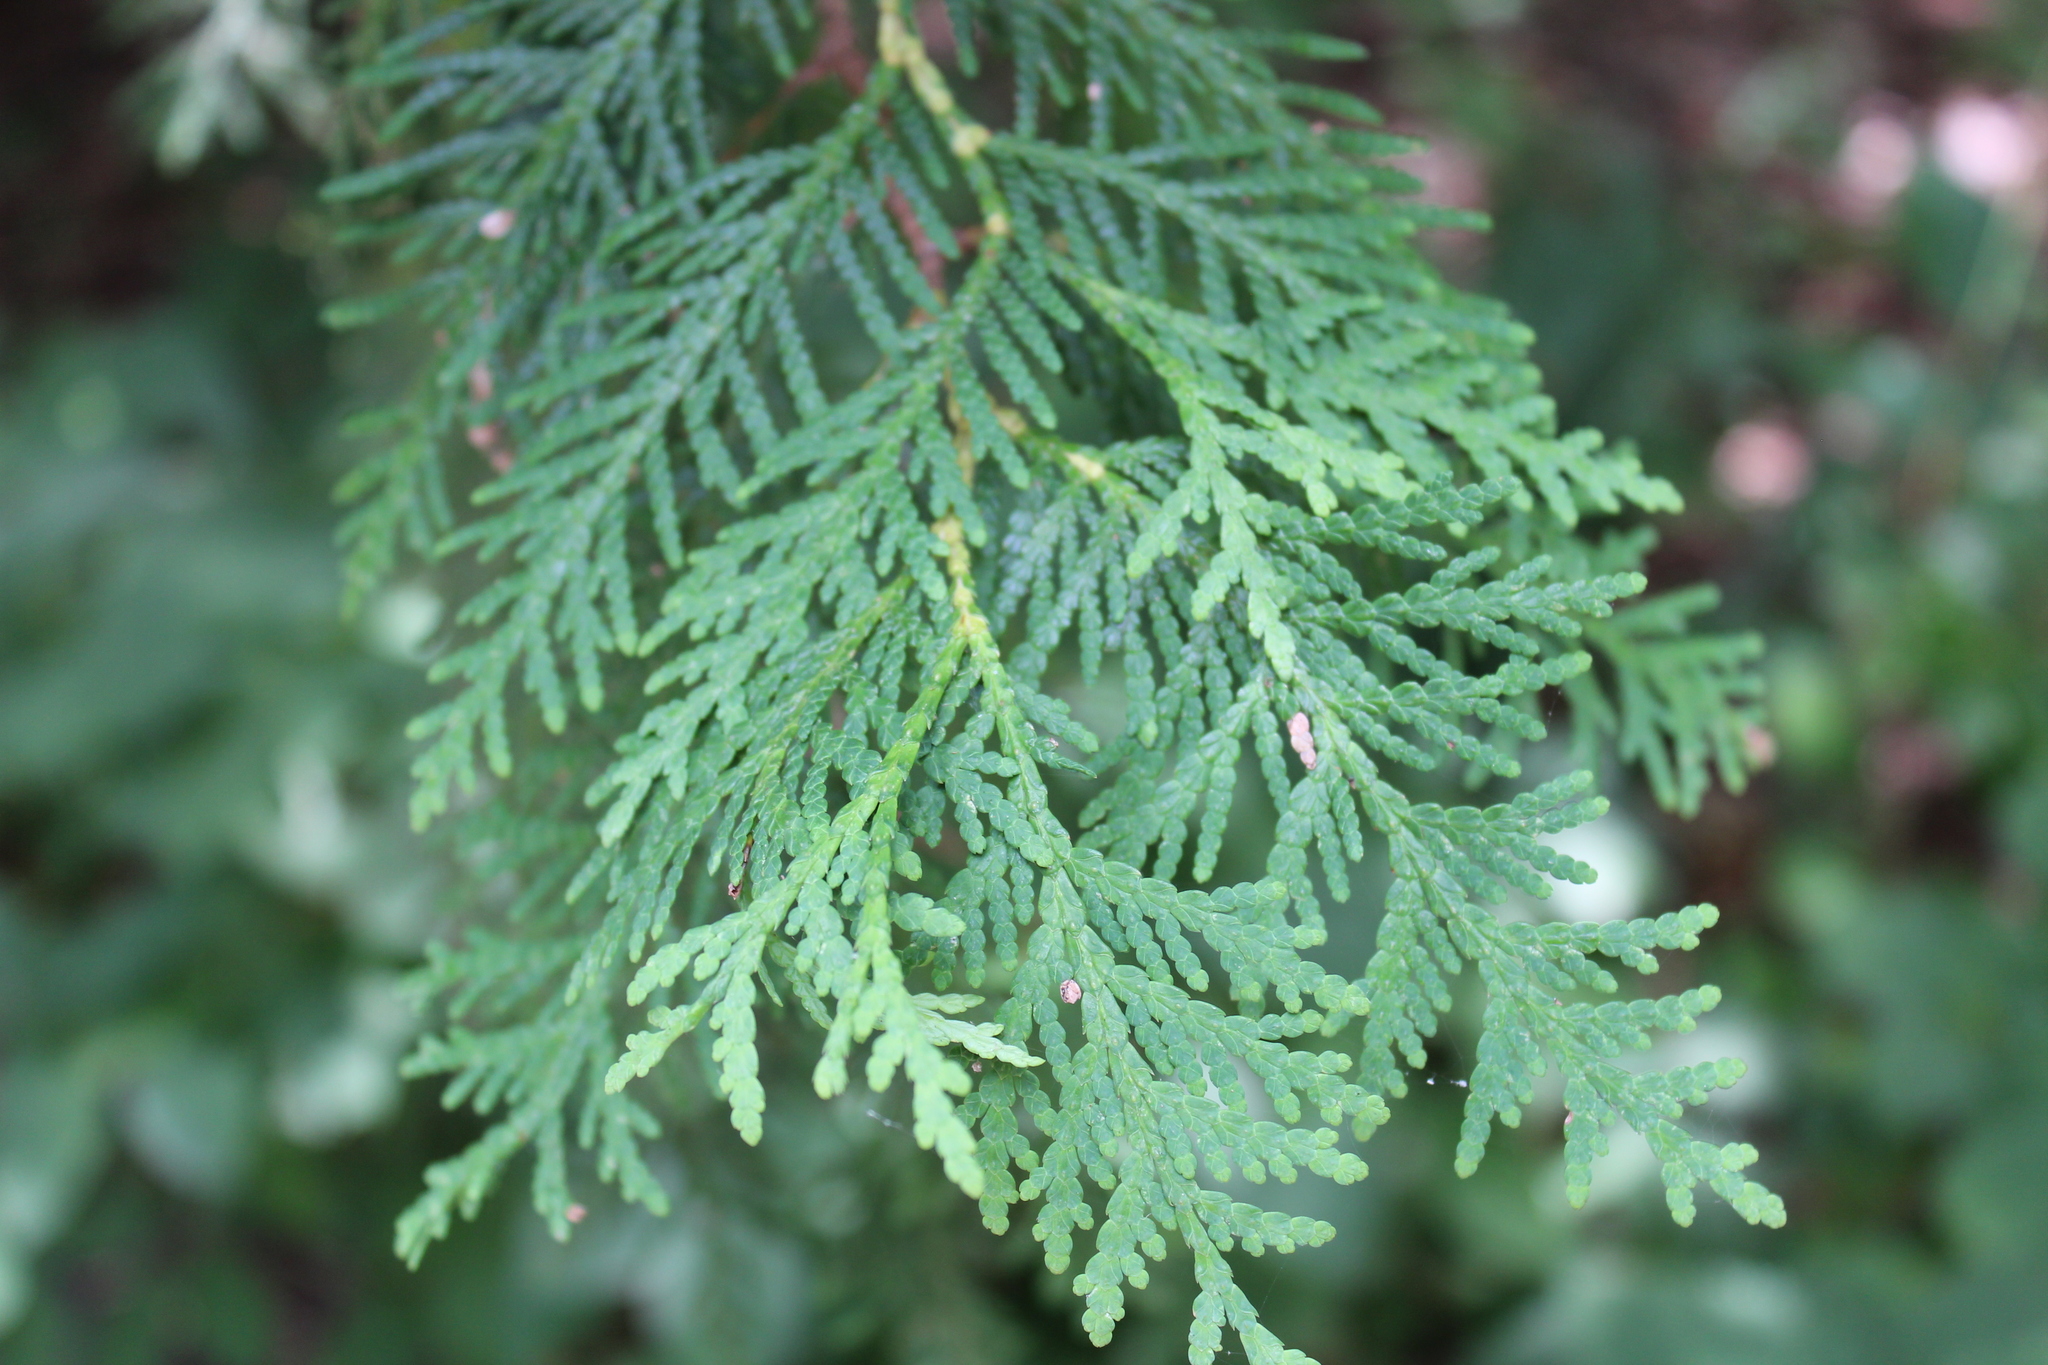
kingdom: Plantae
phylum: Tracheophyta
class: Pinopsida
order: Pinales
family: Cupressaceae
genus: Thuja
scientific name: Thuja occidentalis
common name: Northern white-cedar
